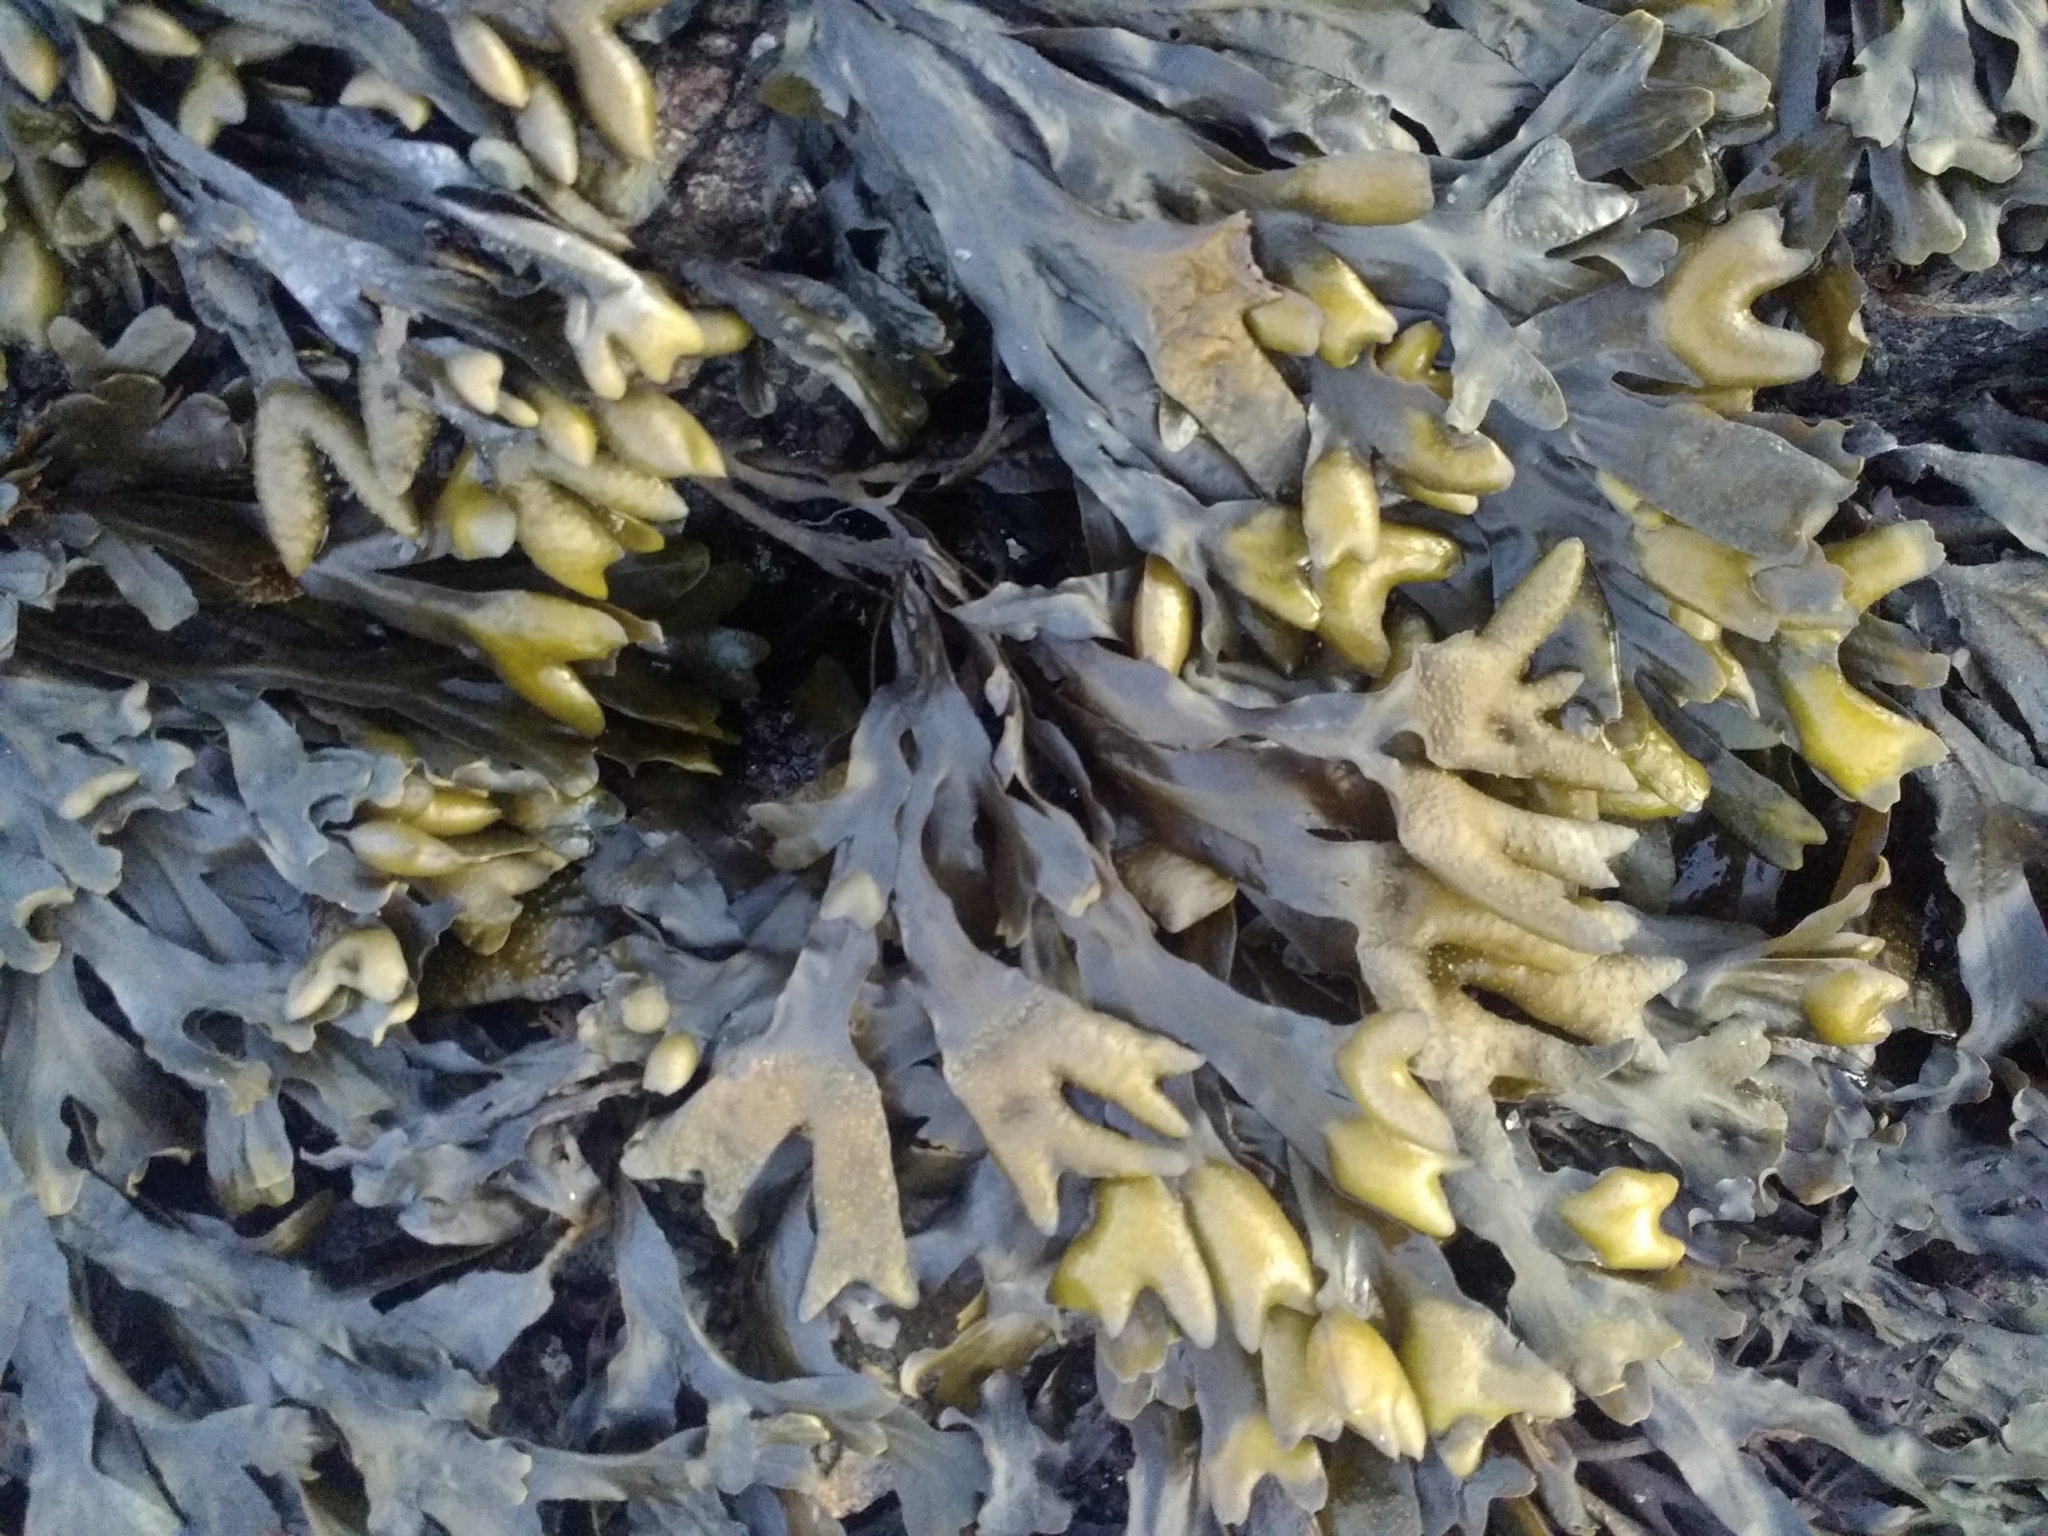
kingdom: Chromista
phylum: Ochrophyta
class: Phaeophyceae
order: Fucales
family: Fucaceae
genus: Fucus
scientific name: Fucus distichus
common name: Rockweed
